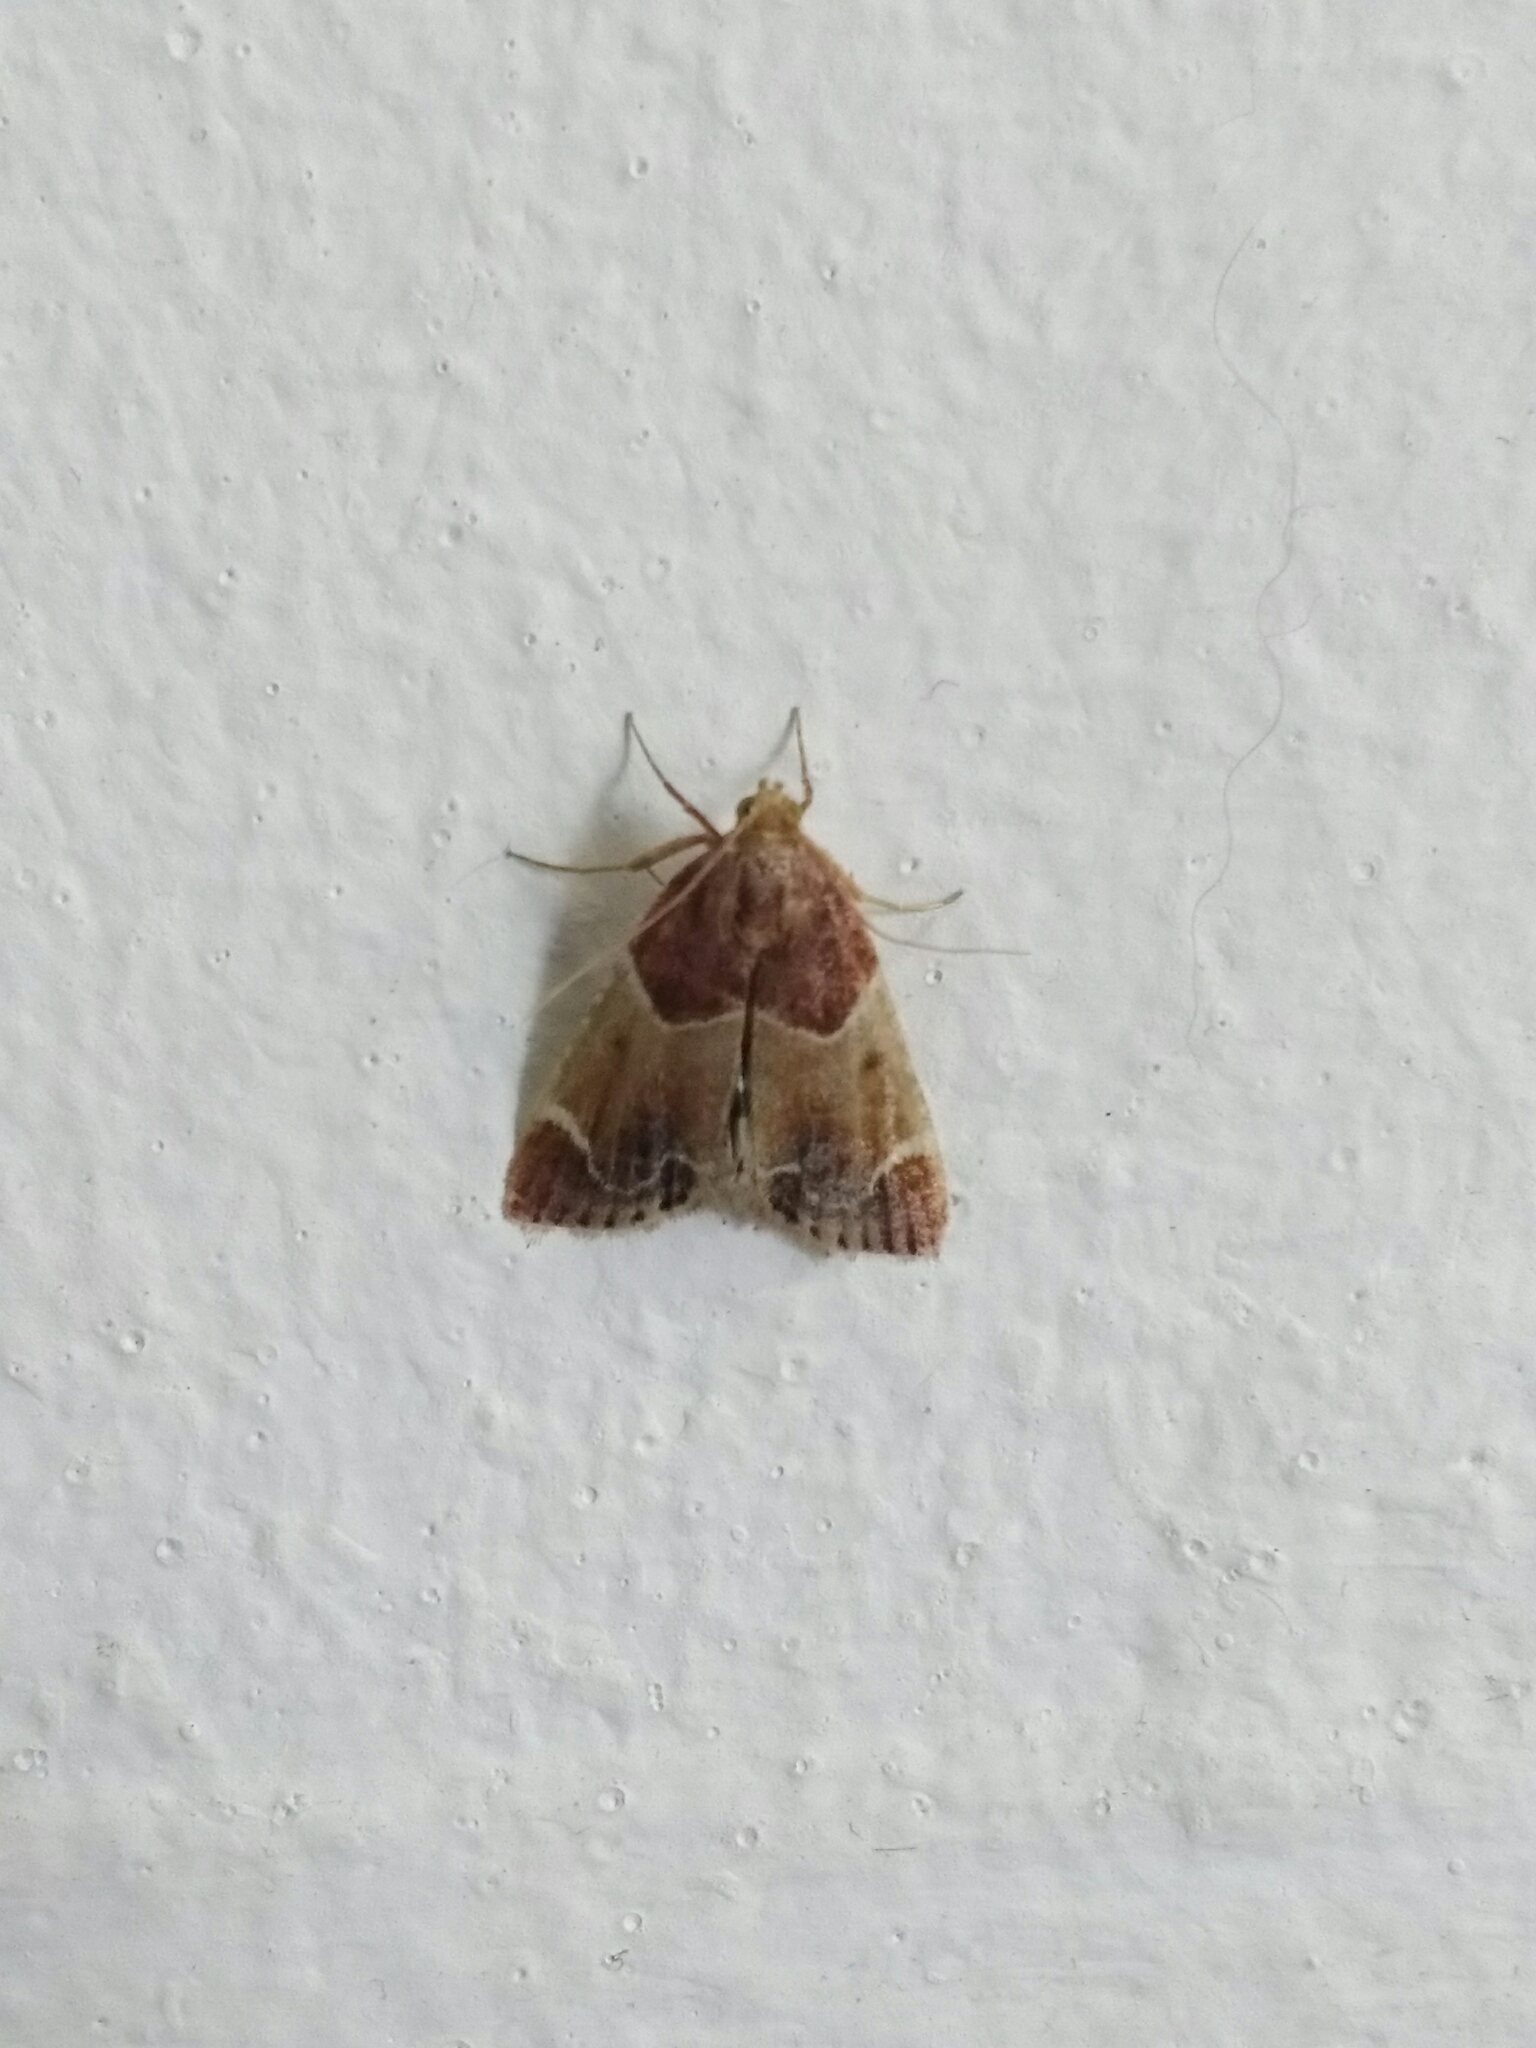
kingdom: Animalia
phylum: Arthropoda
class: Insecta
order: Lepidoptera
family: Pyralidae
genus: Pyralis
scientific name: Pyralis farinalis
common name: Meal moth
